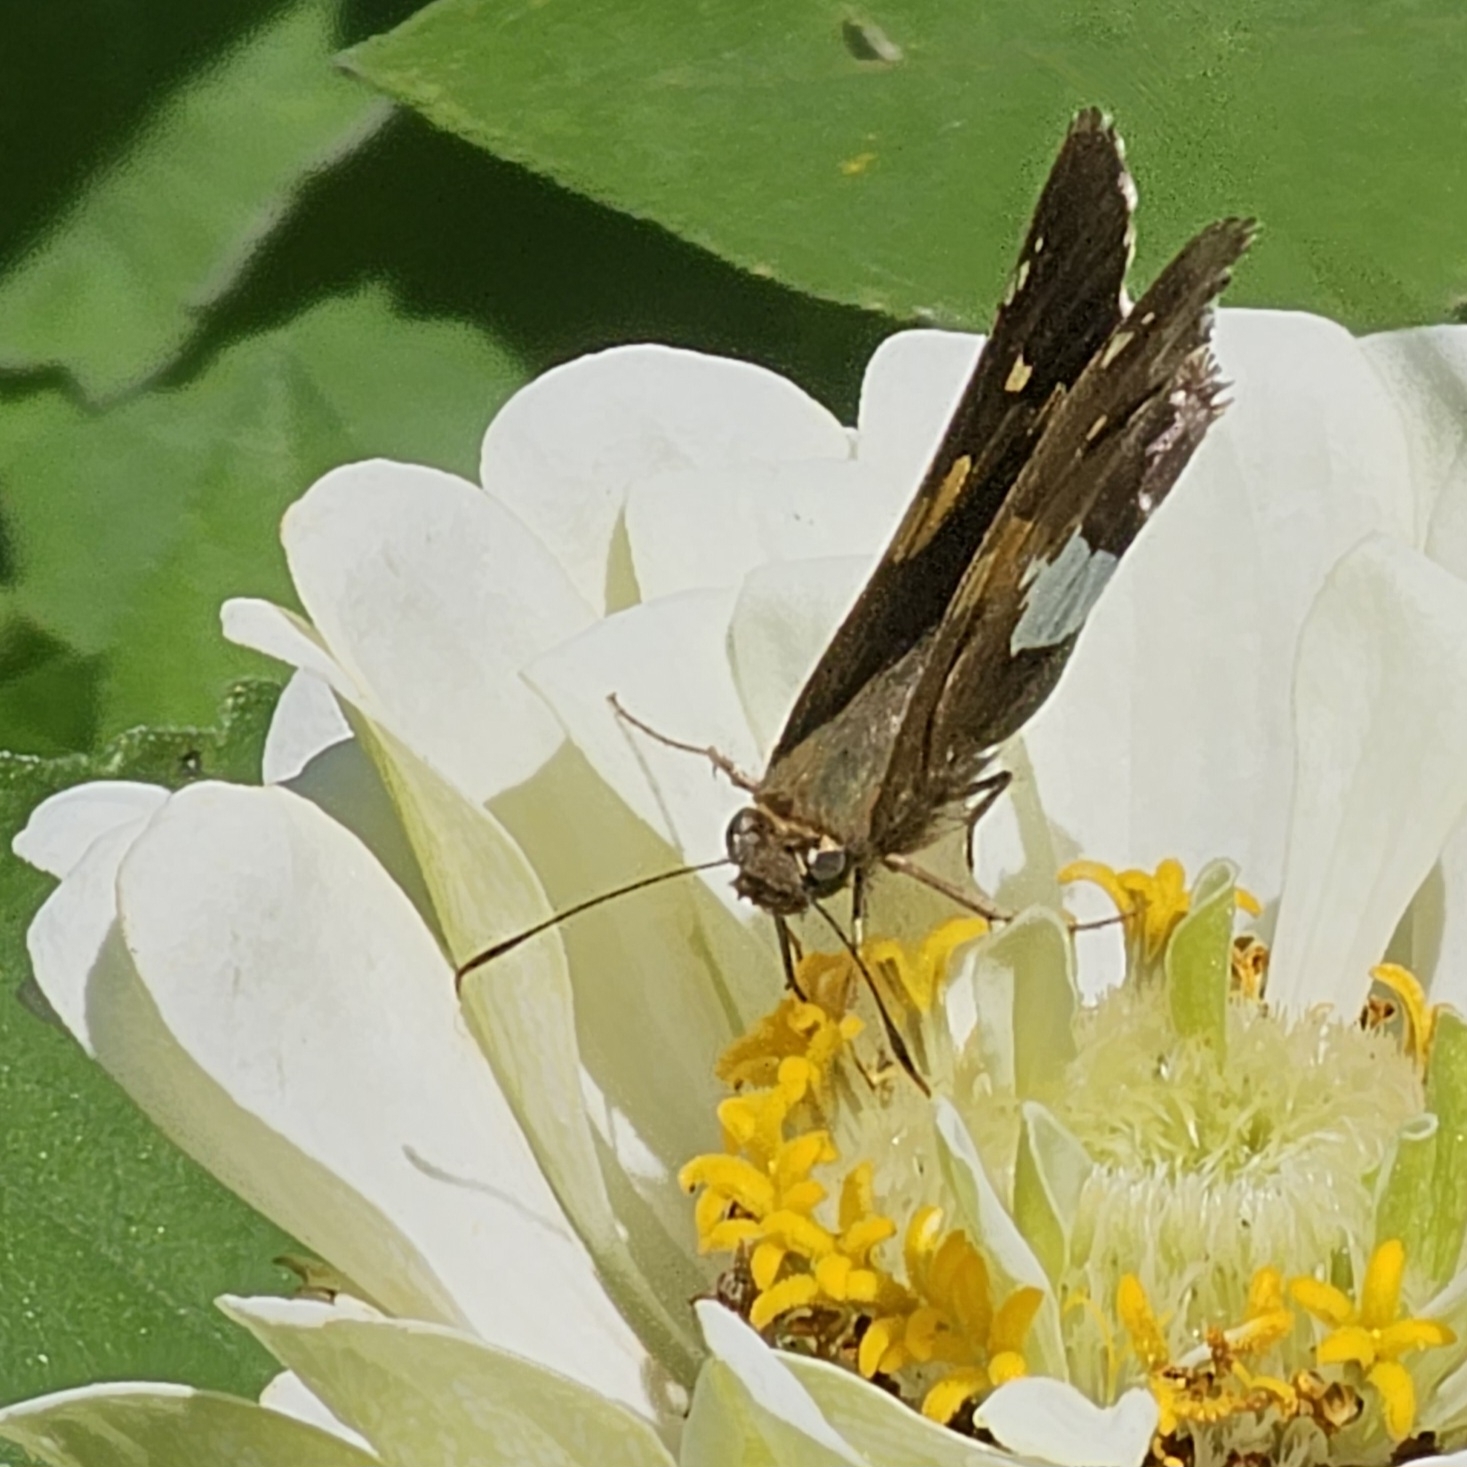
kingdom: Animalia
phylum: Arthropoda
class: Insecta
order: Lepidoptera
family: Hesperiidae
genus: Epargyreus
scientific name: Epargyreus clarus
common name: Silver-spotted skipper
